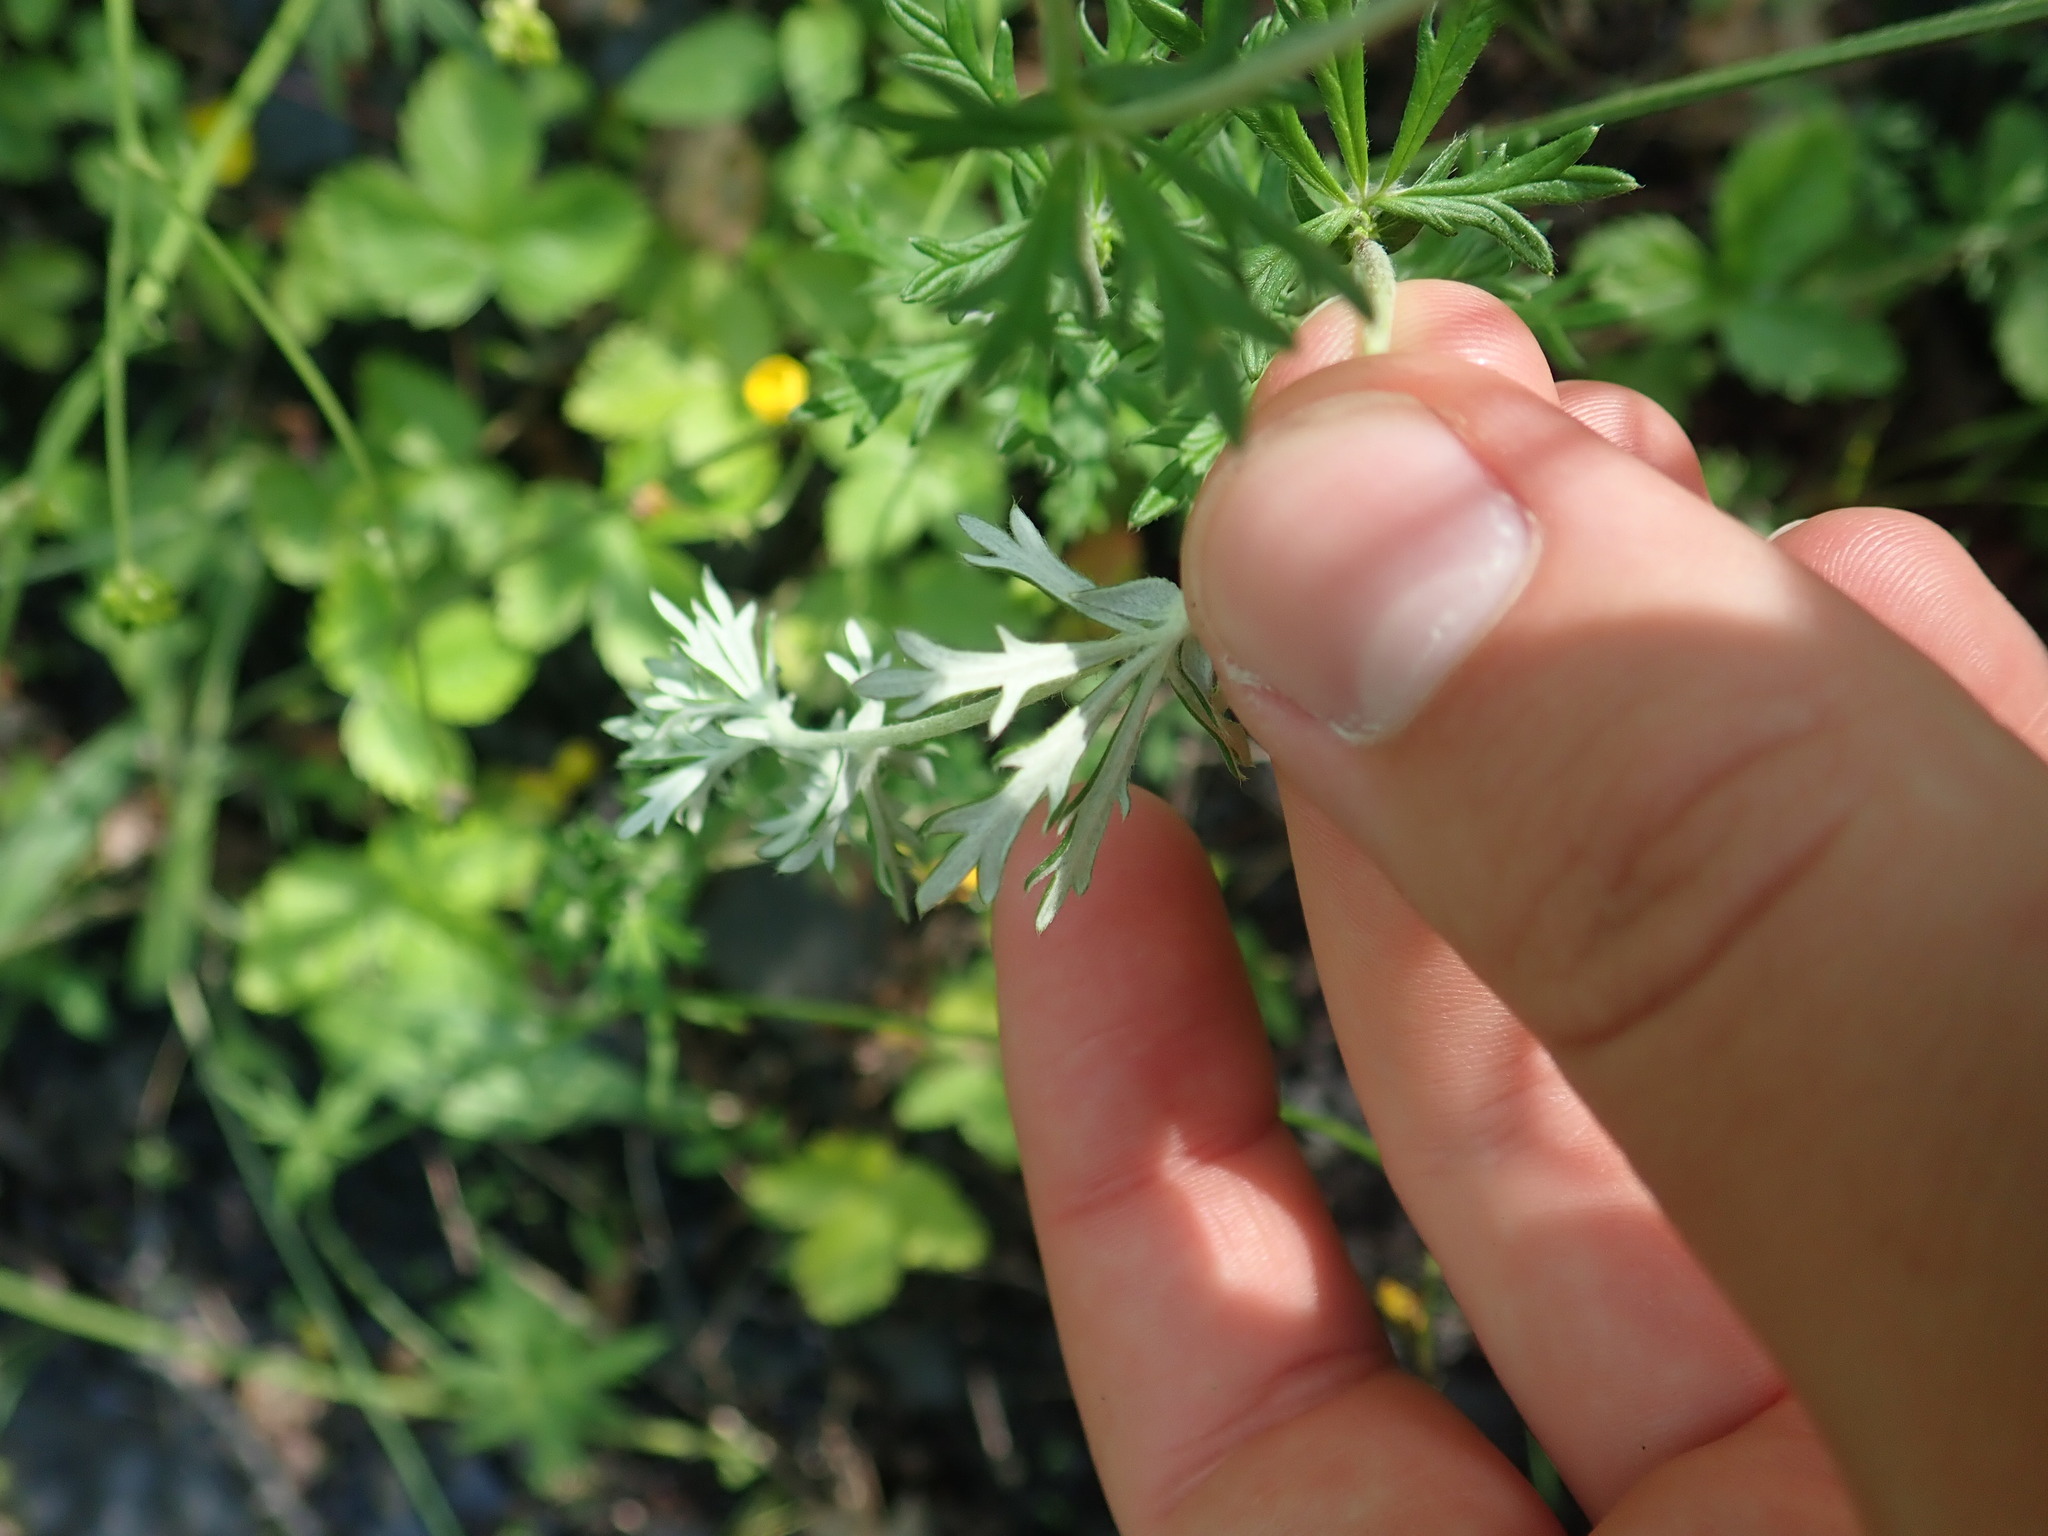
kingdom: Plantae
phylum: Tracheophyta
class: Magnoliopsida
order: Rosales
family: Rosaceae
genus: Potentilla
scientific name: Potentilla argentea
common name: Hoary cinquefoil
